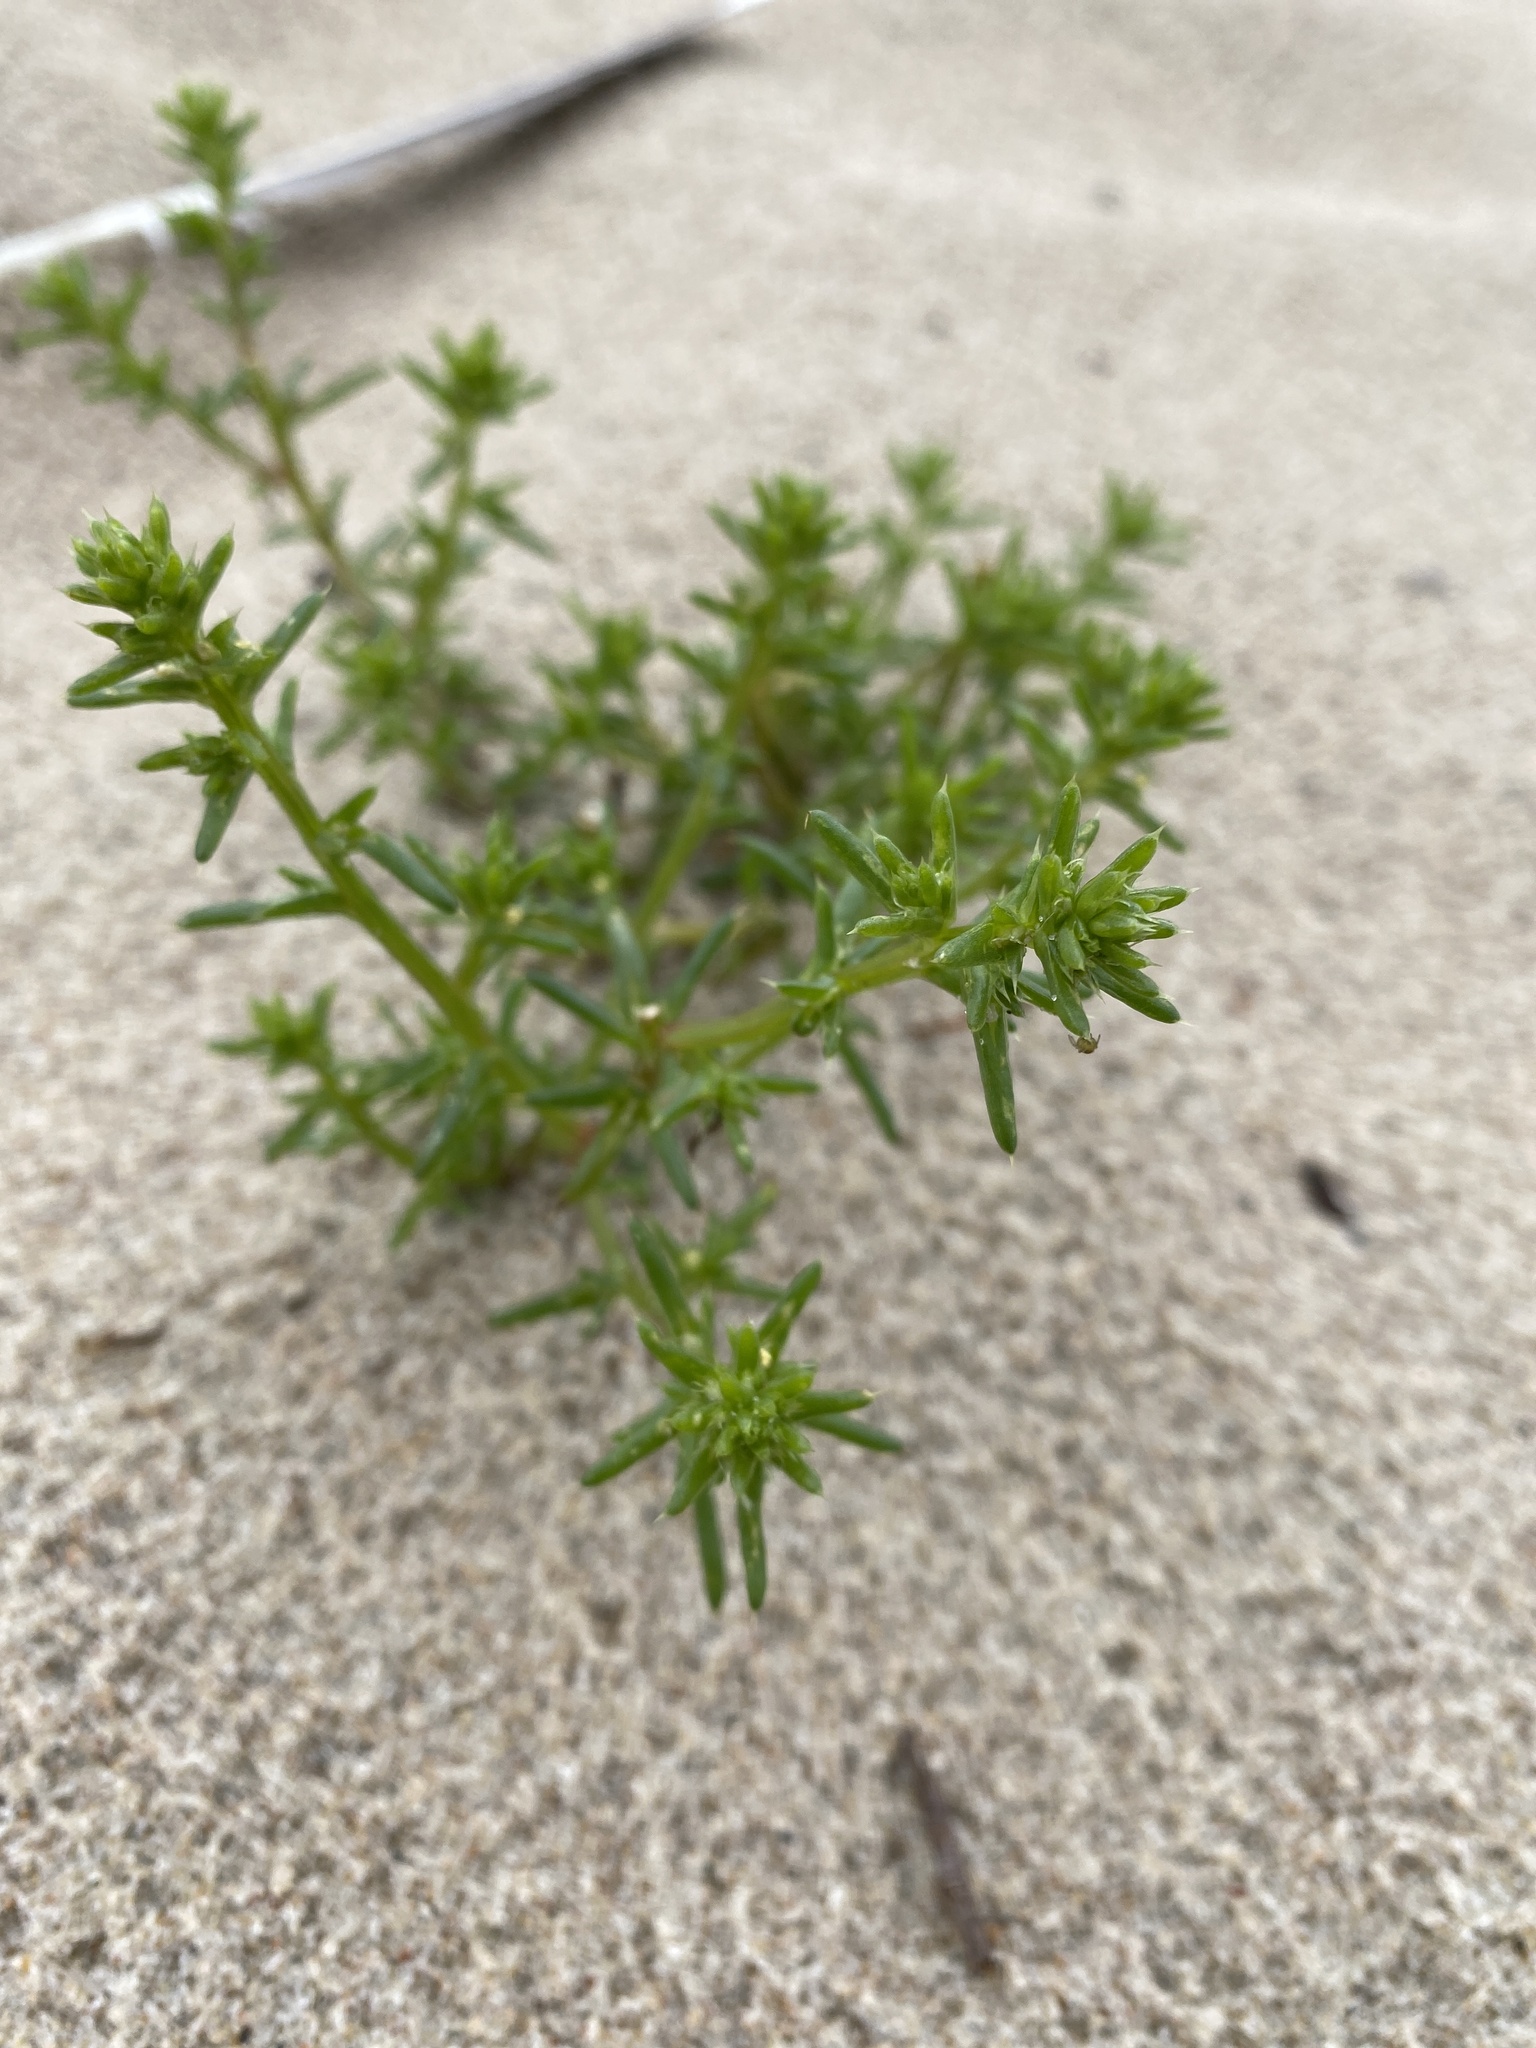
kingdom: Plantae
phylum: Tracheophyta
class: Magnoliopsida
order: Caryophyllales
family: Amaranthaceae
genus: Salsola
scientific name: Salsola kali
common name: Saltwort
